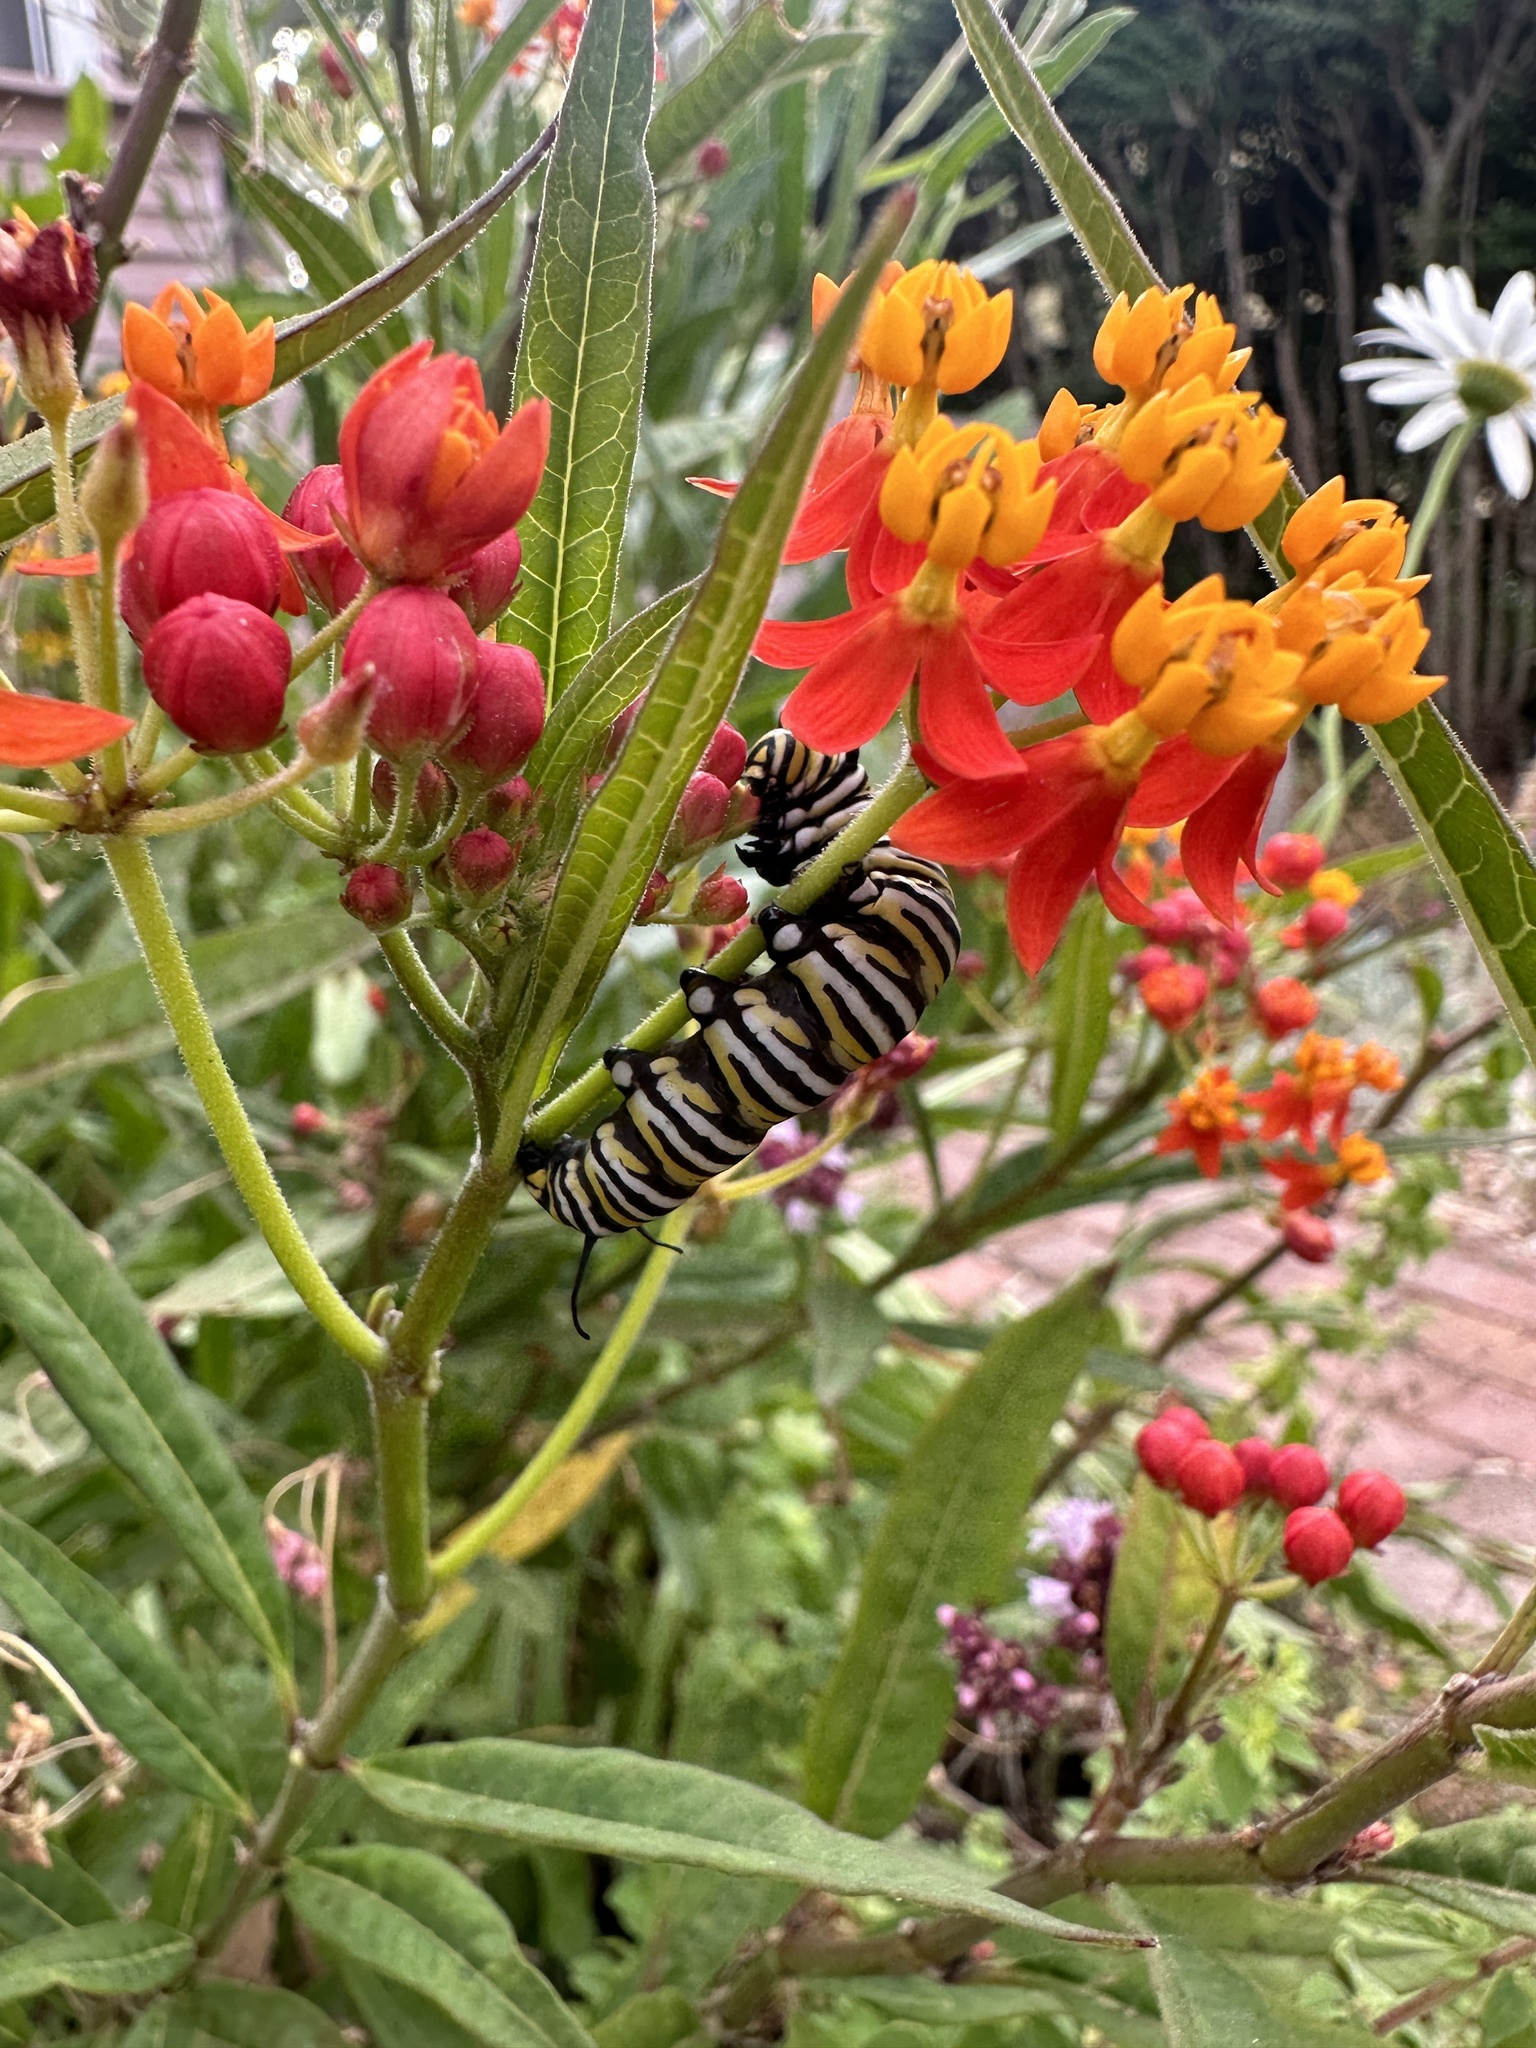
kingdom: Animalia
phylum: Arthropoda
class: Insecta
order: Lepidoptera
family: Nymphalidae
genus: Danaus
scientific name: Danaus plexippus
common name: Monarch
